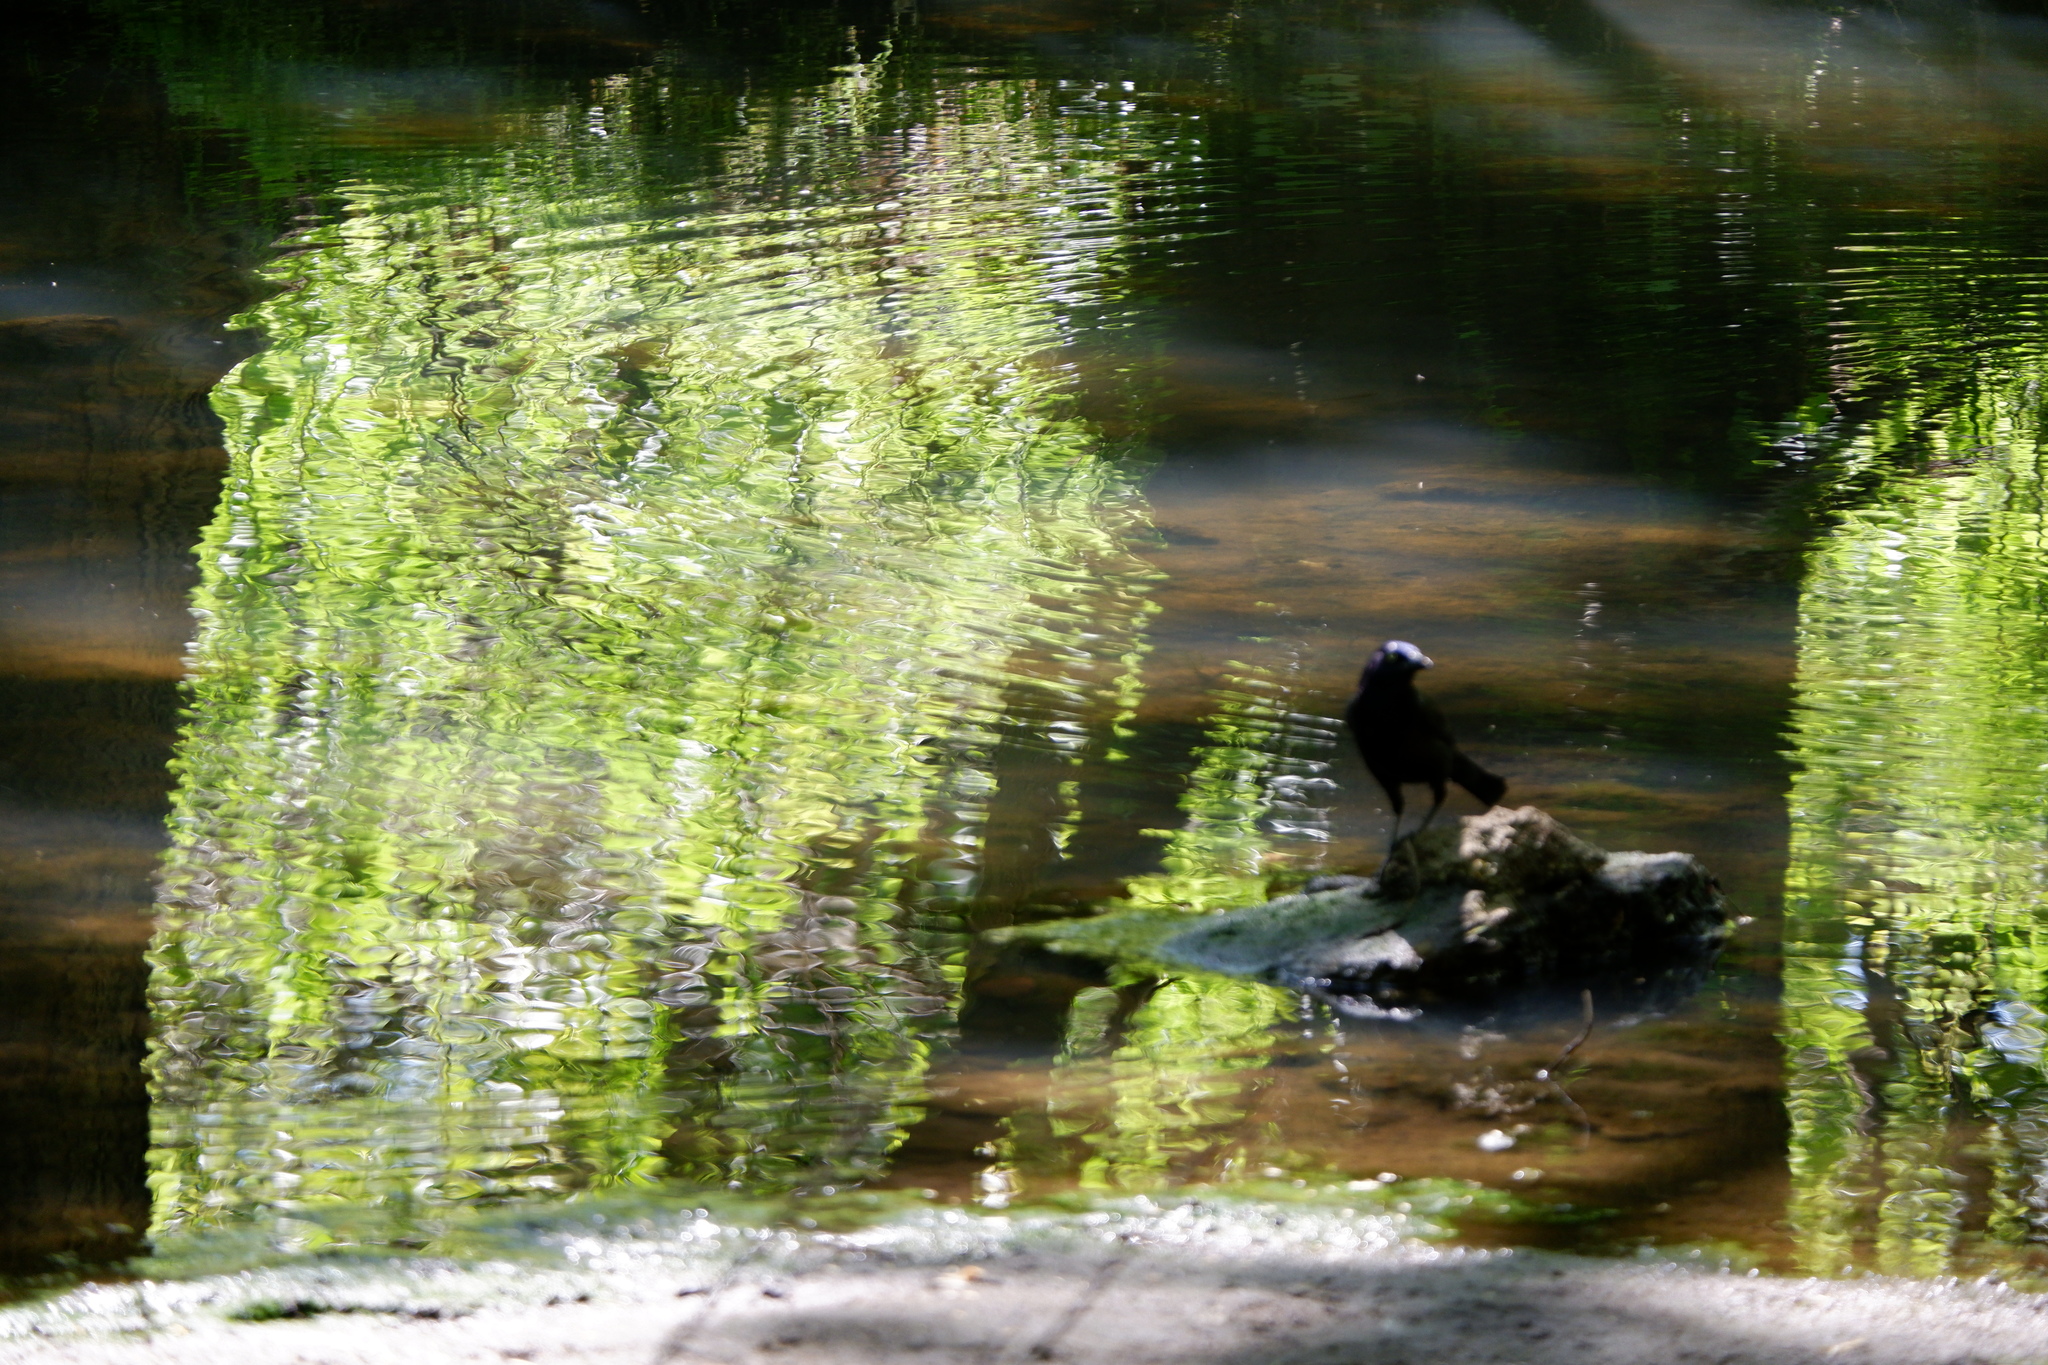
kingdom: Animalia
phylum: Chordata
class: Aves
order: Passeriformes
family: Icteridae
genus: Quiscalus
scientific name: Quiscalus quiscula
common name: Common grackle
